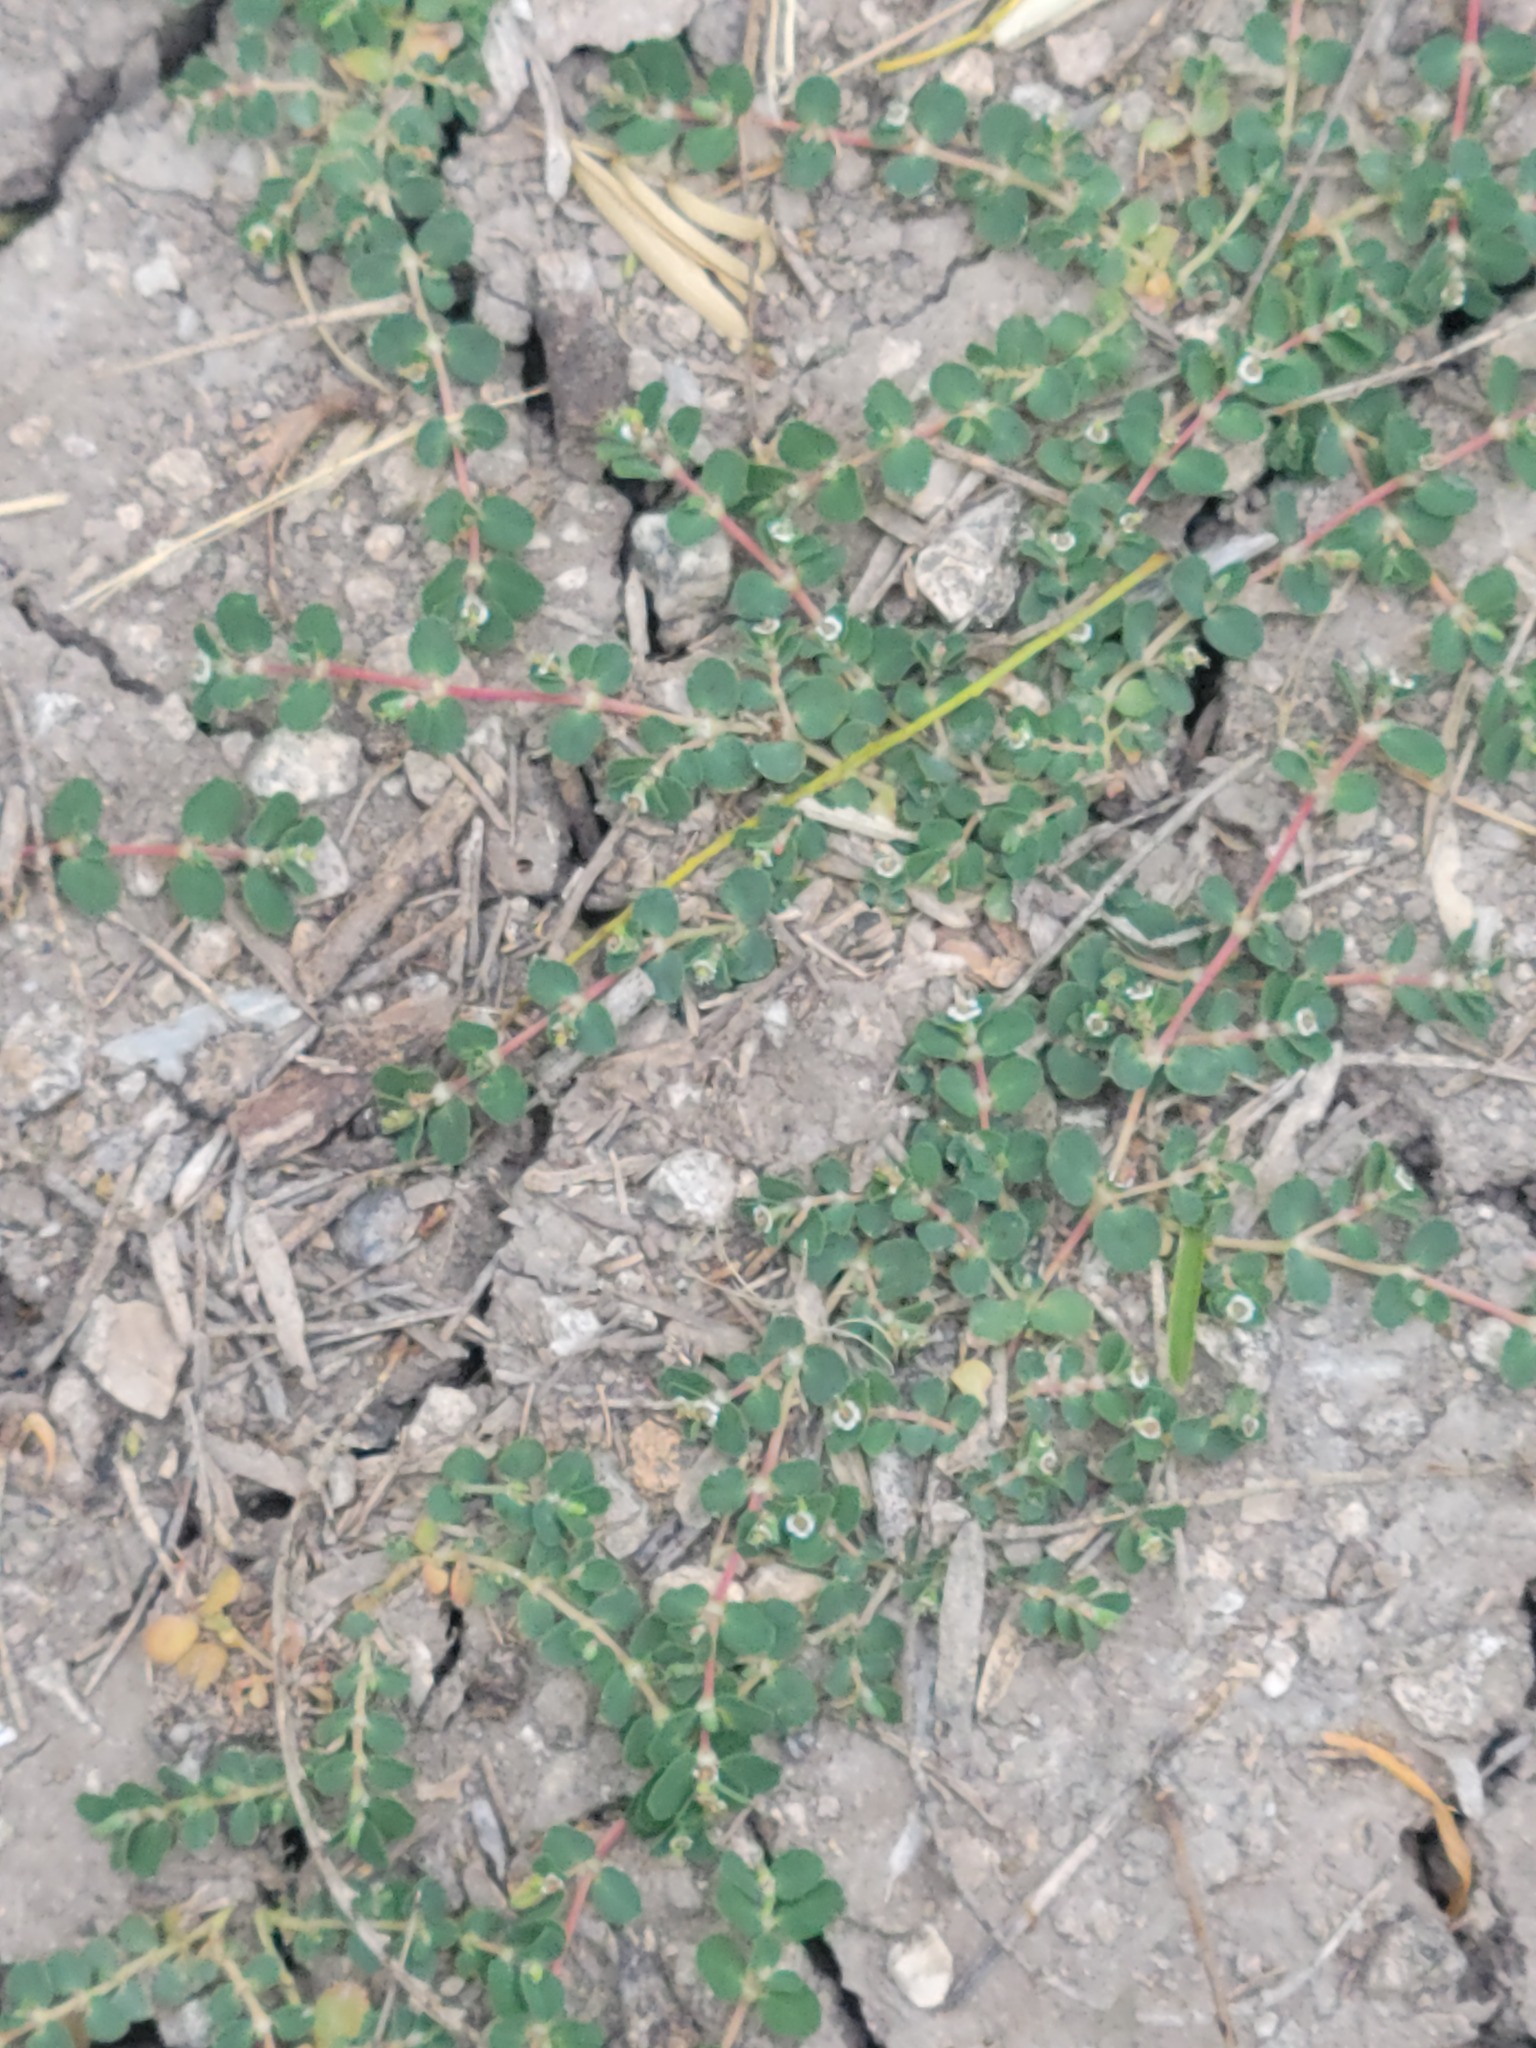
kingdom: Plantae
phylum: Tracheophyta
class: Magnoliopsida
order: Malpighiales
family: Euphorbiaceae
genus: Euphorbia
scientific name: Euphorbia serpens
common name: Matted sandmat
